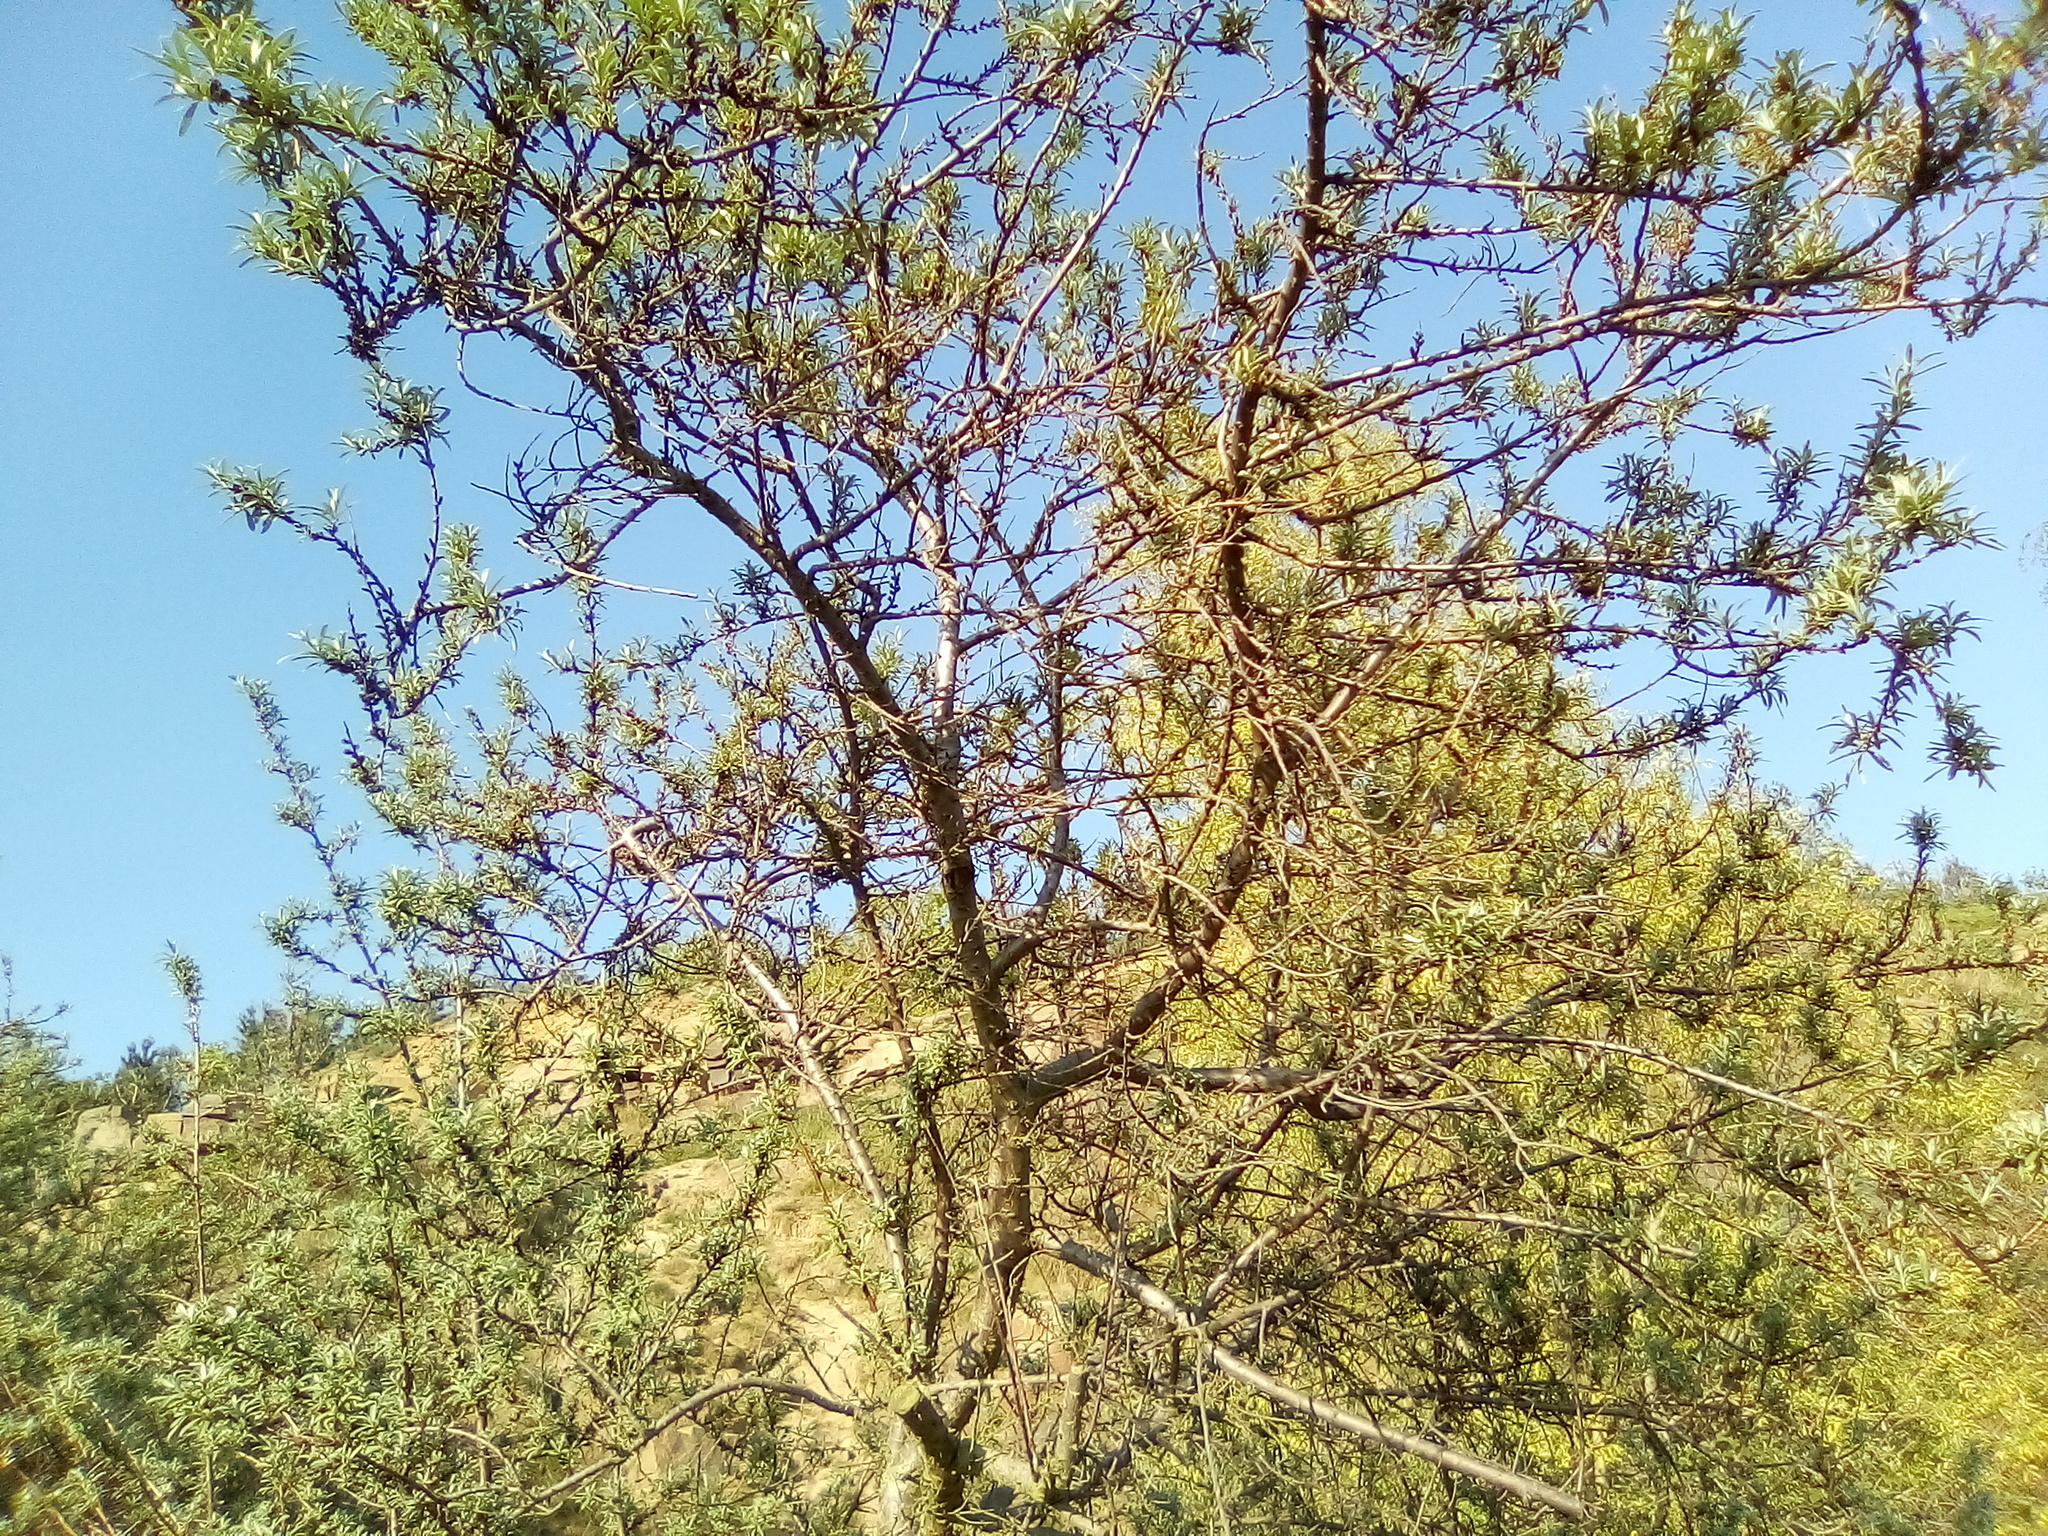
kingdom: Plantae
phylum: Tracheophyta
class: Magnoliopsida
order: Rosales
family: Elaeagnaceae
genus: Hippophae
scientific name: Hippophae rhamnoides
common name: Sea-buckthorn
